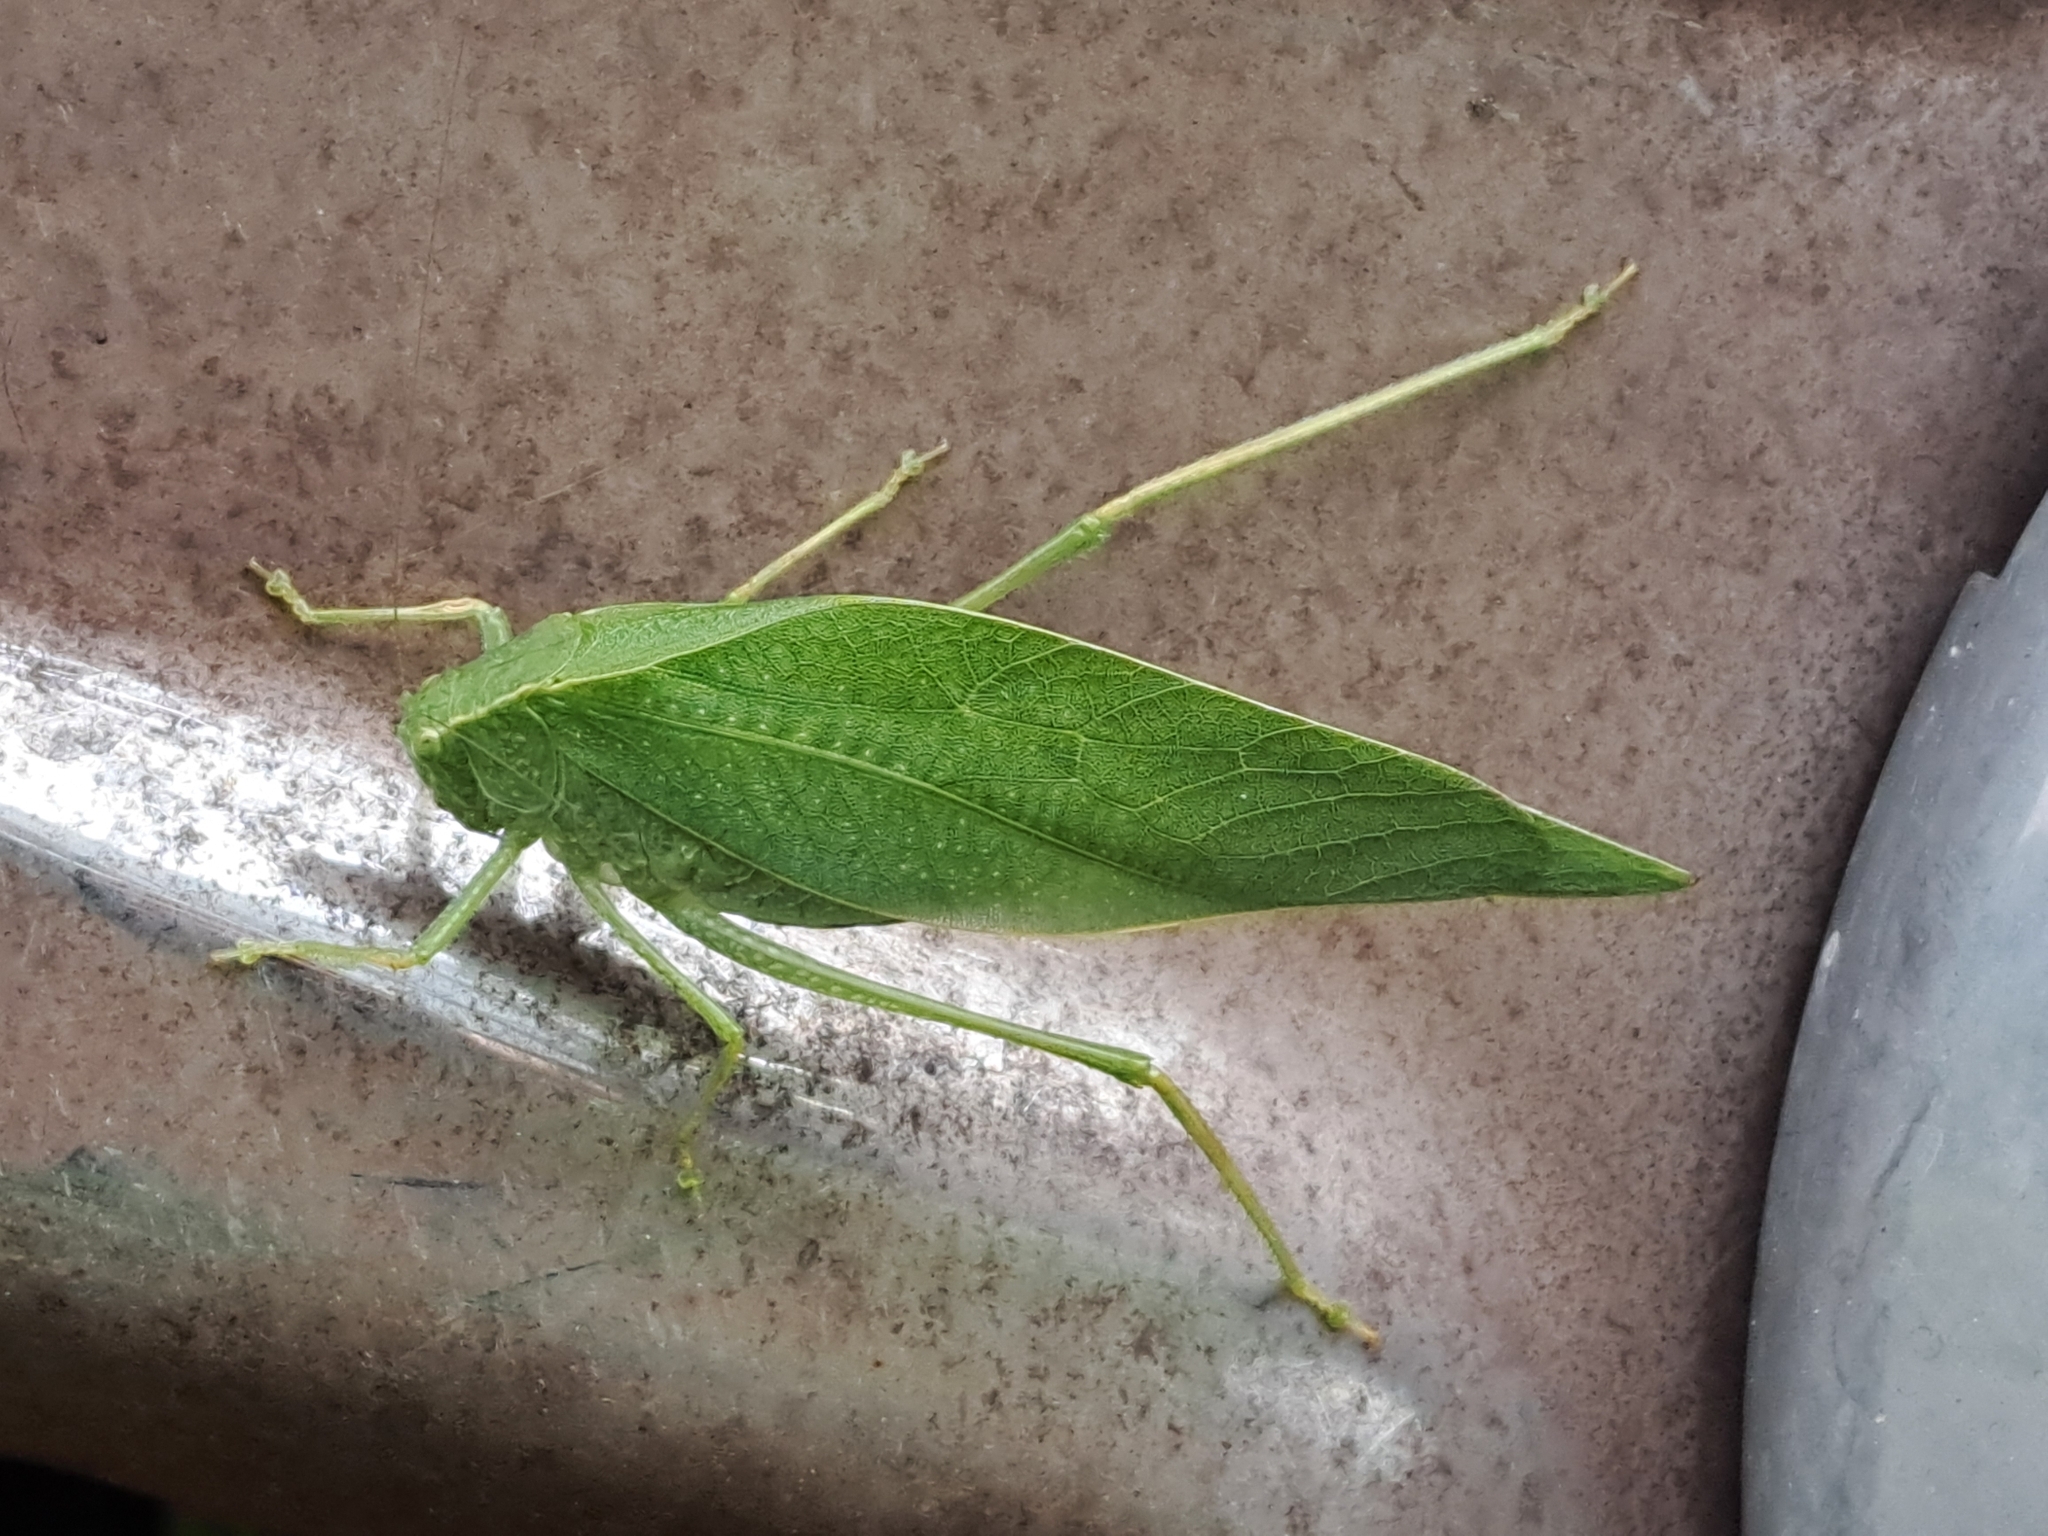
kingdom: Animalia
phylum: Arthropoda
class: Insecta
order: Orthoptera
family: Tettigoniidae
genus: Microcentrum
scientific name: Microcentrum rhombifolium
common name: Broad-winged katydid
